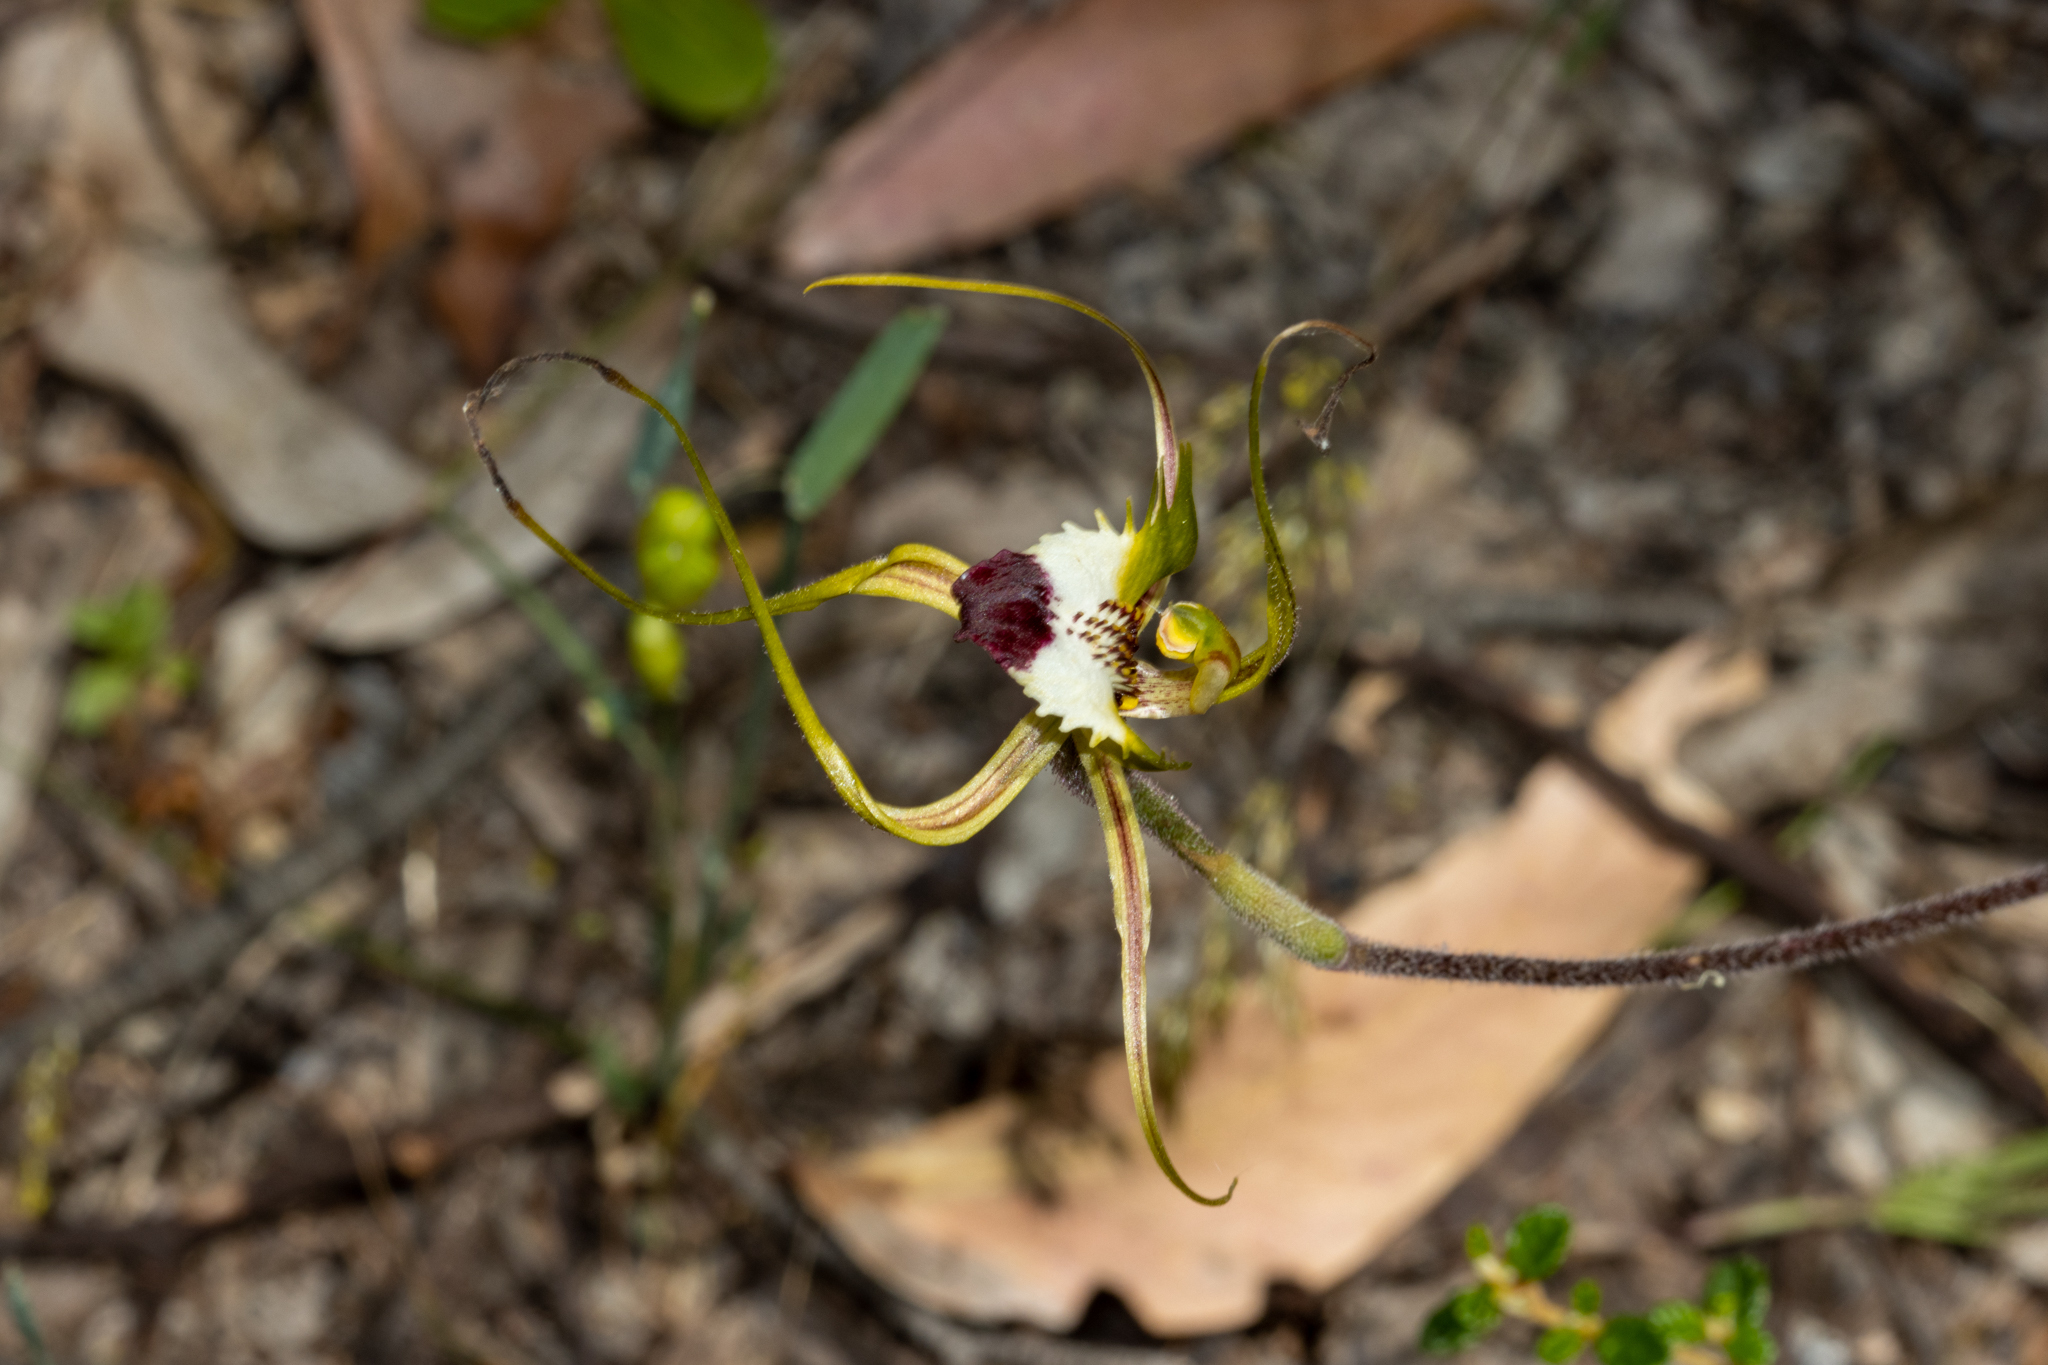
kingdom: Plantae
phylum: Tracheophyta
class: Liliopsida
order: Asparagales
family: Orchidaceae
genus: Caladenia
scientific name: Caladenia tentaculata
